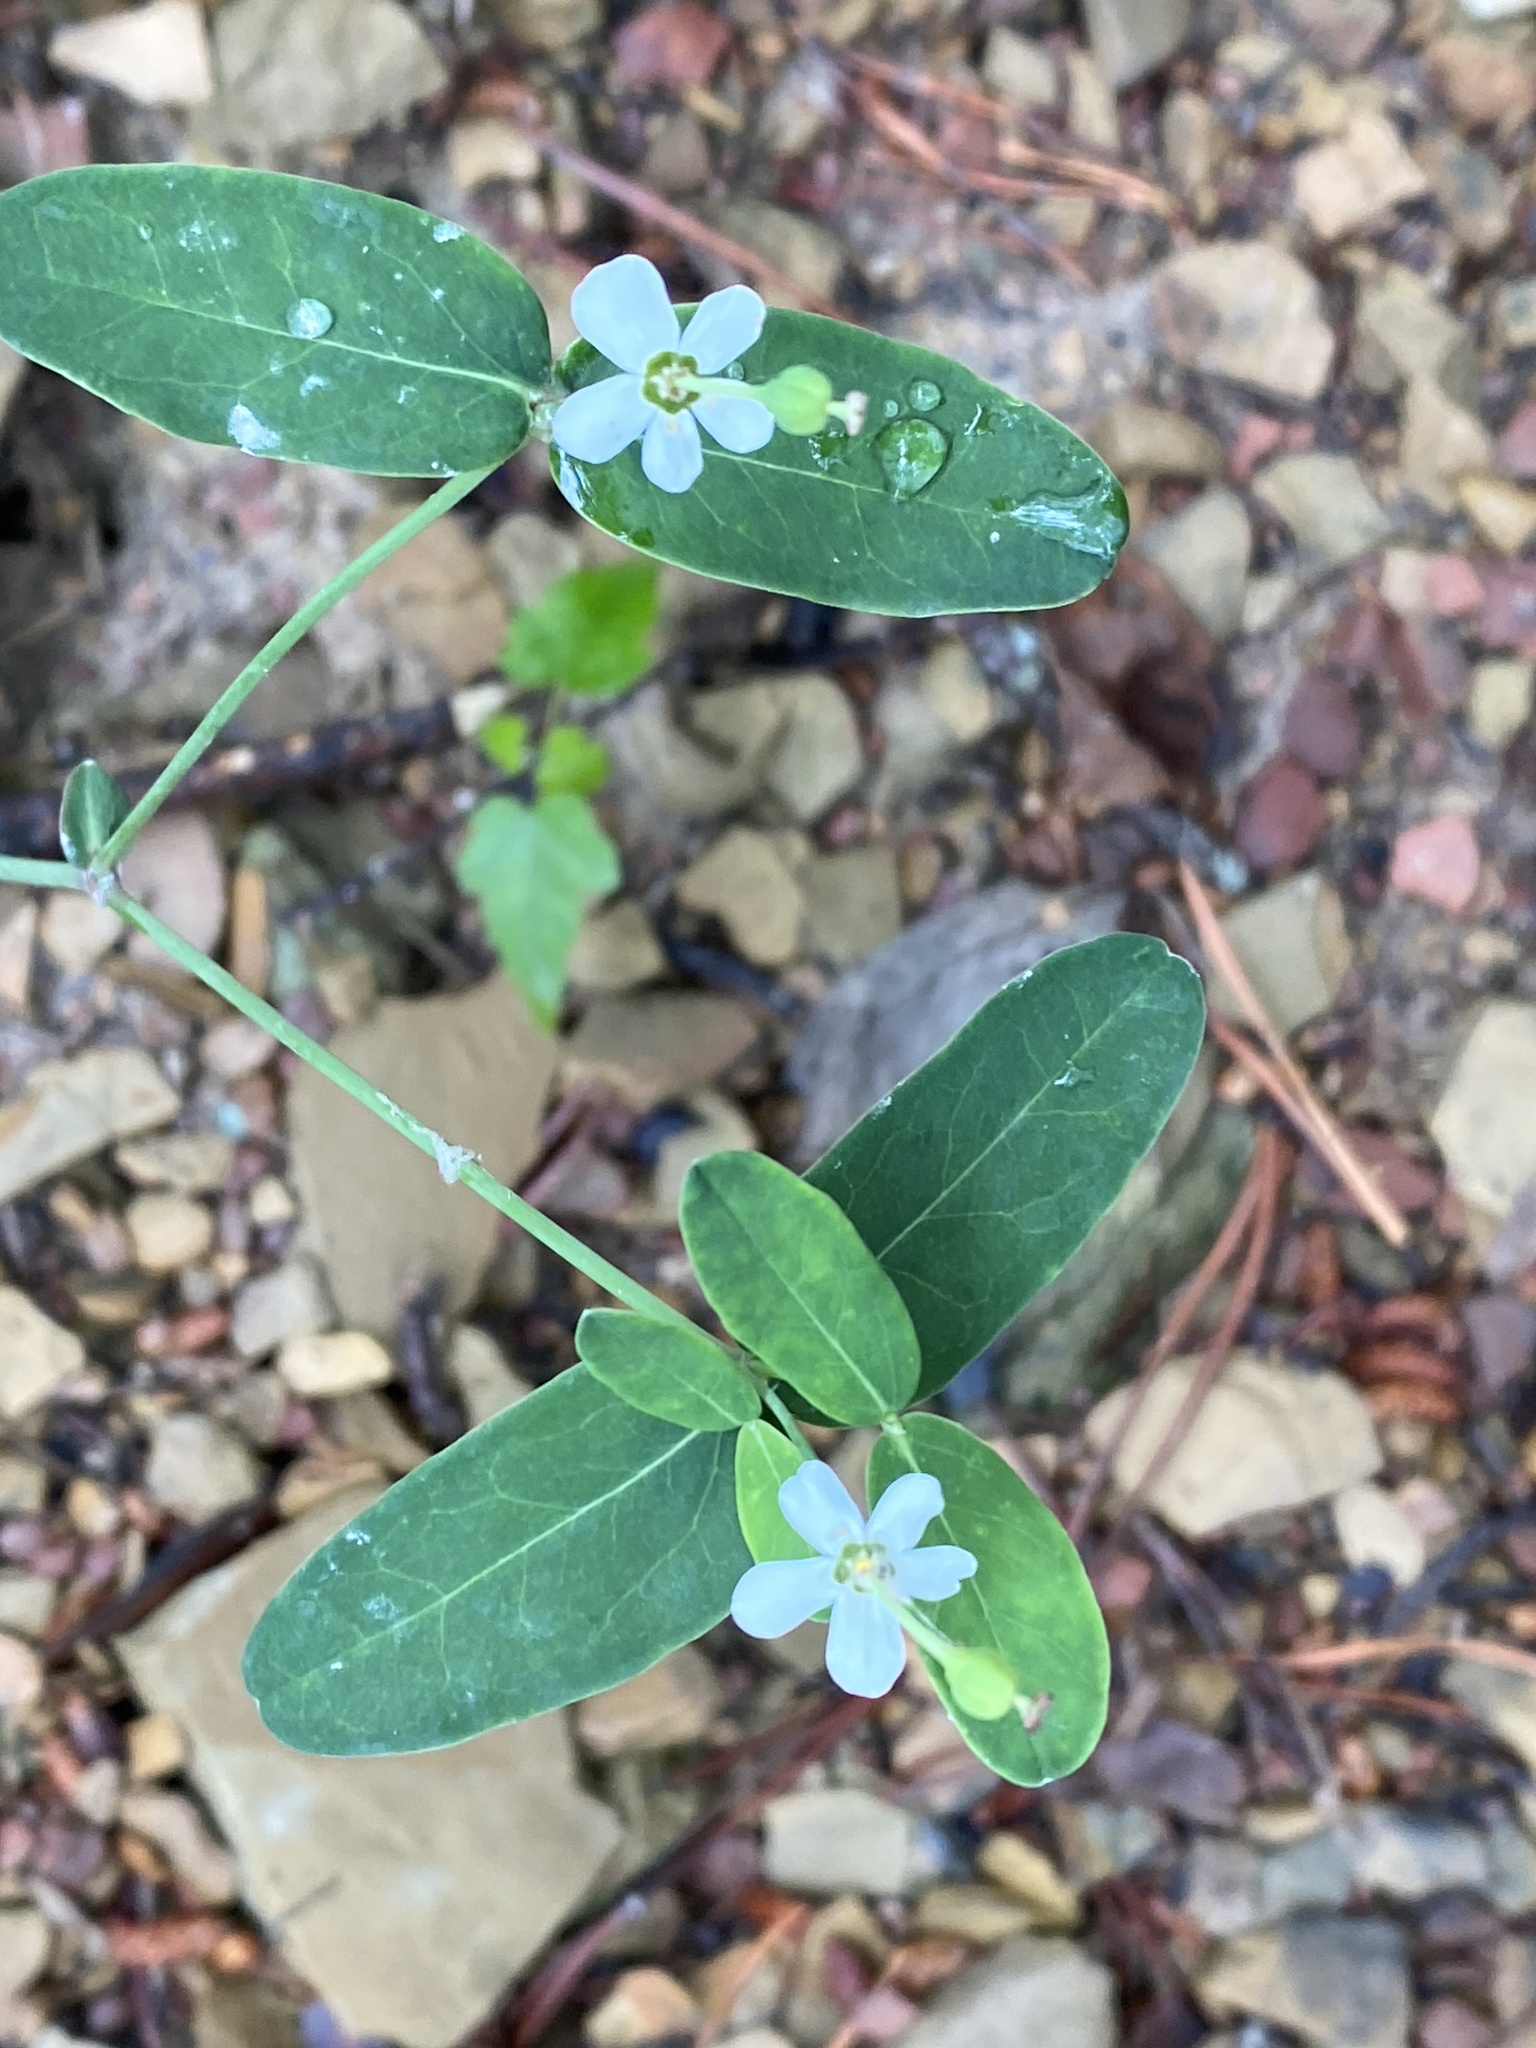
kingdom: Plantae
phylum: Tracheophyta
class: Magnoliopsida
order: Malpighiales
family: Euphorbiaceae
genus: Euphorbia
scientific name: Euphorbia corollata
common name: Flowering spurge
